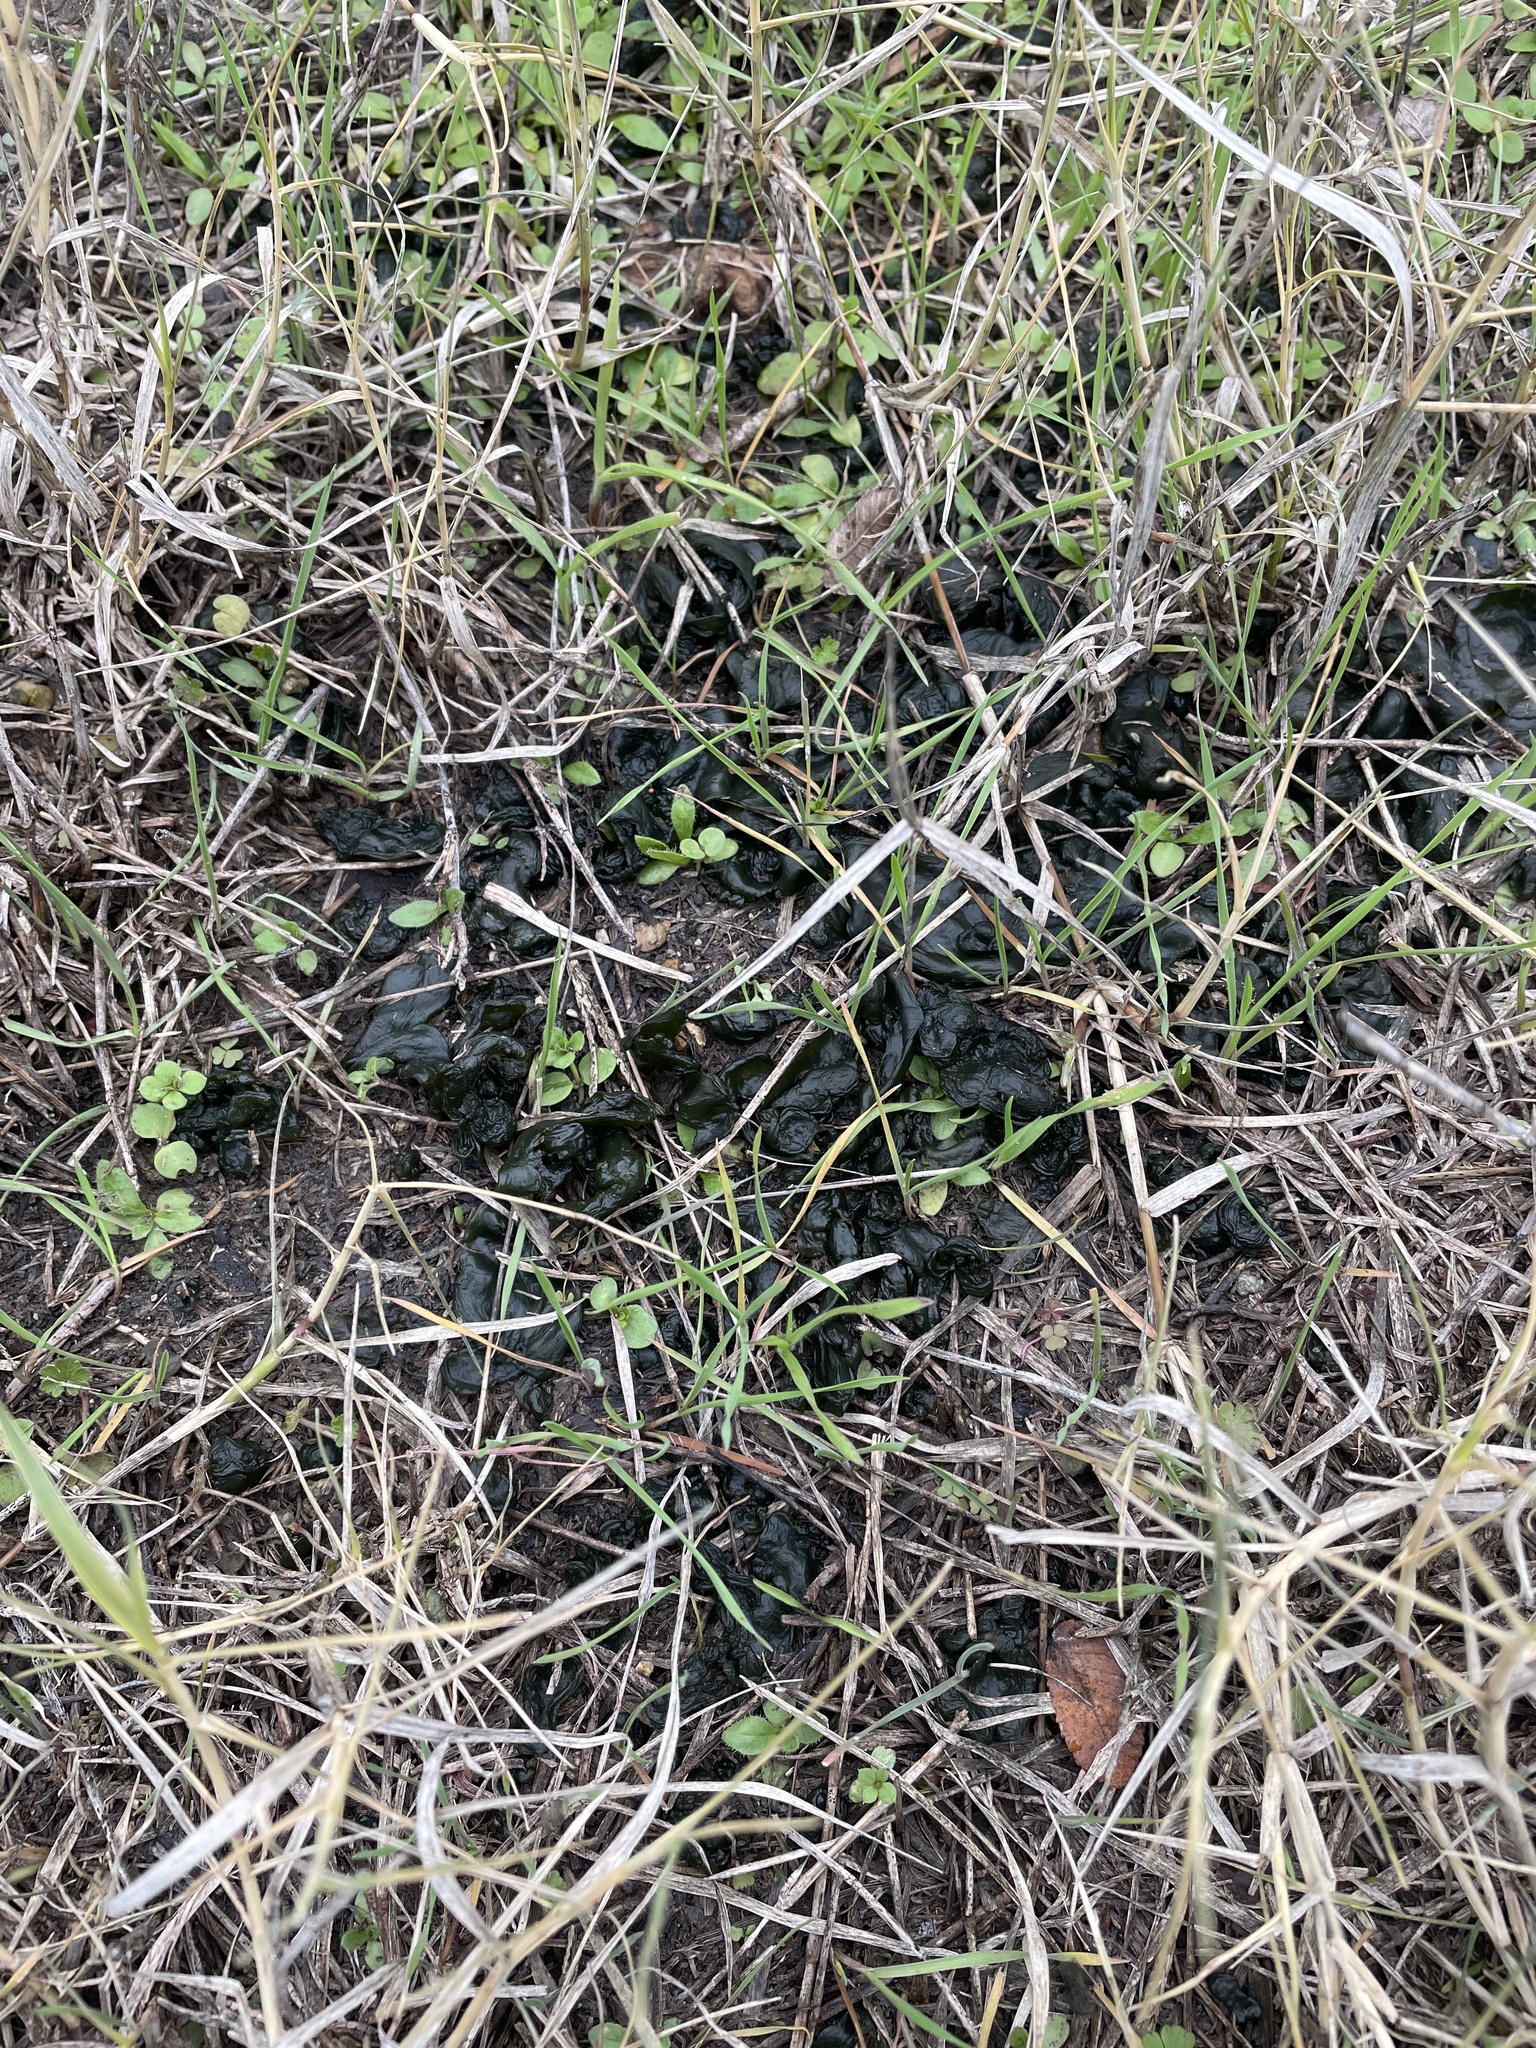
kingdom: Bacteria
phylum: Cyanobacteria
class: Cyanobacteriia
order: Cyanobacteriales
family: Nostocaceae
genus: Nostoc
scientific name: Nostoc commune
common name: Star jelly
